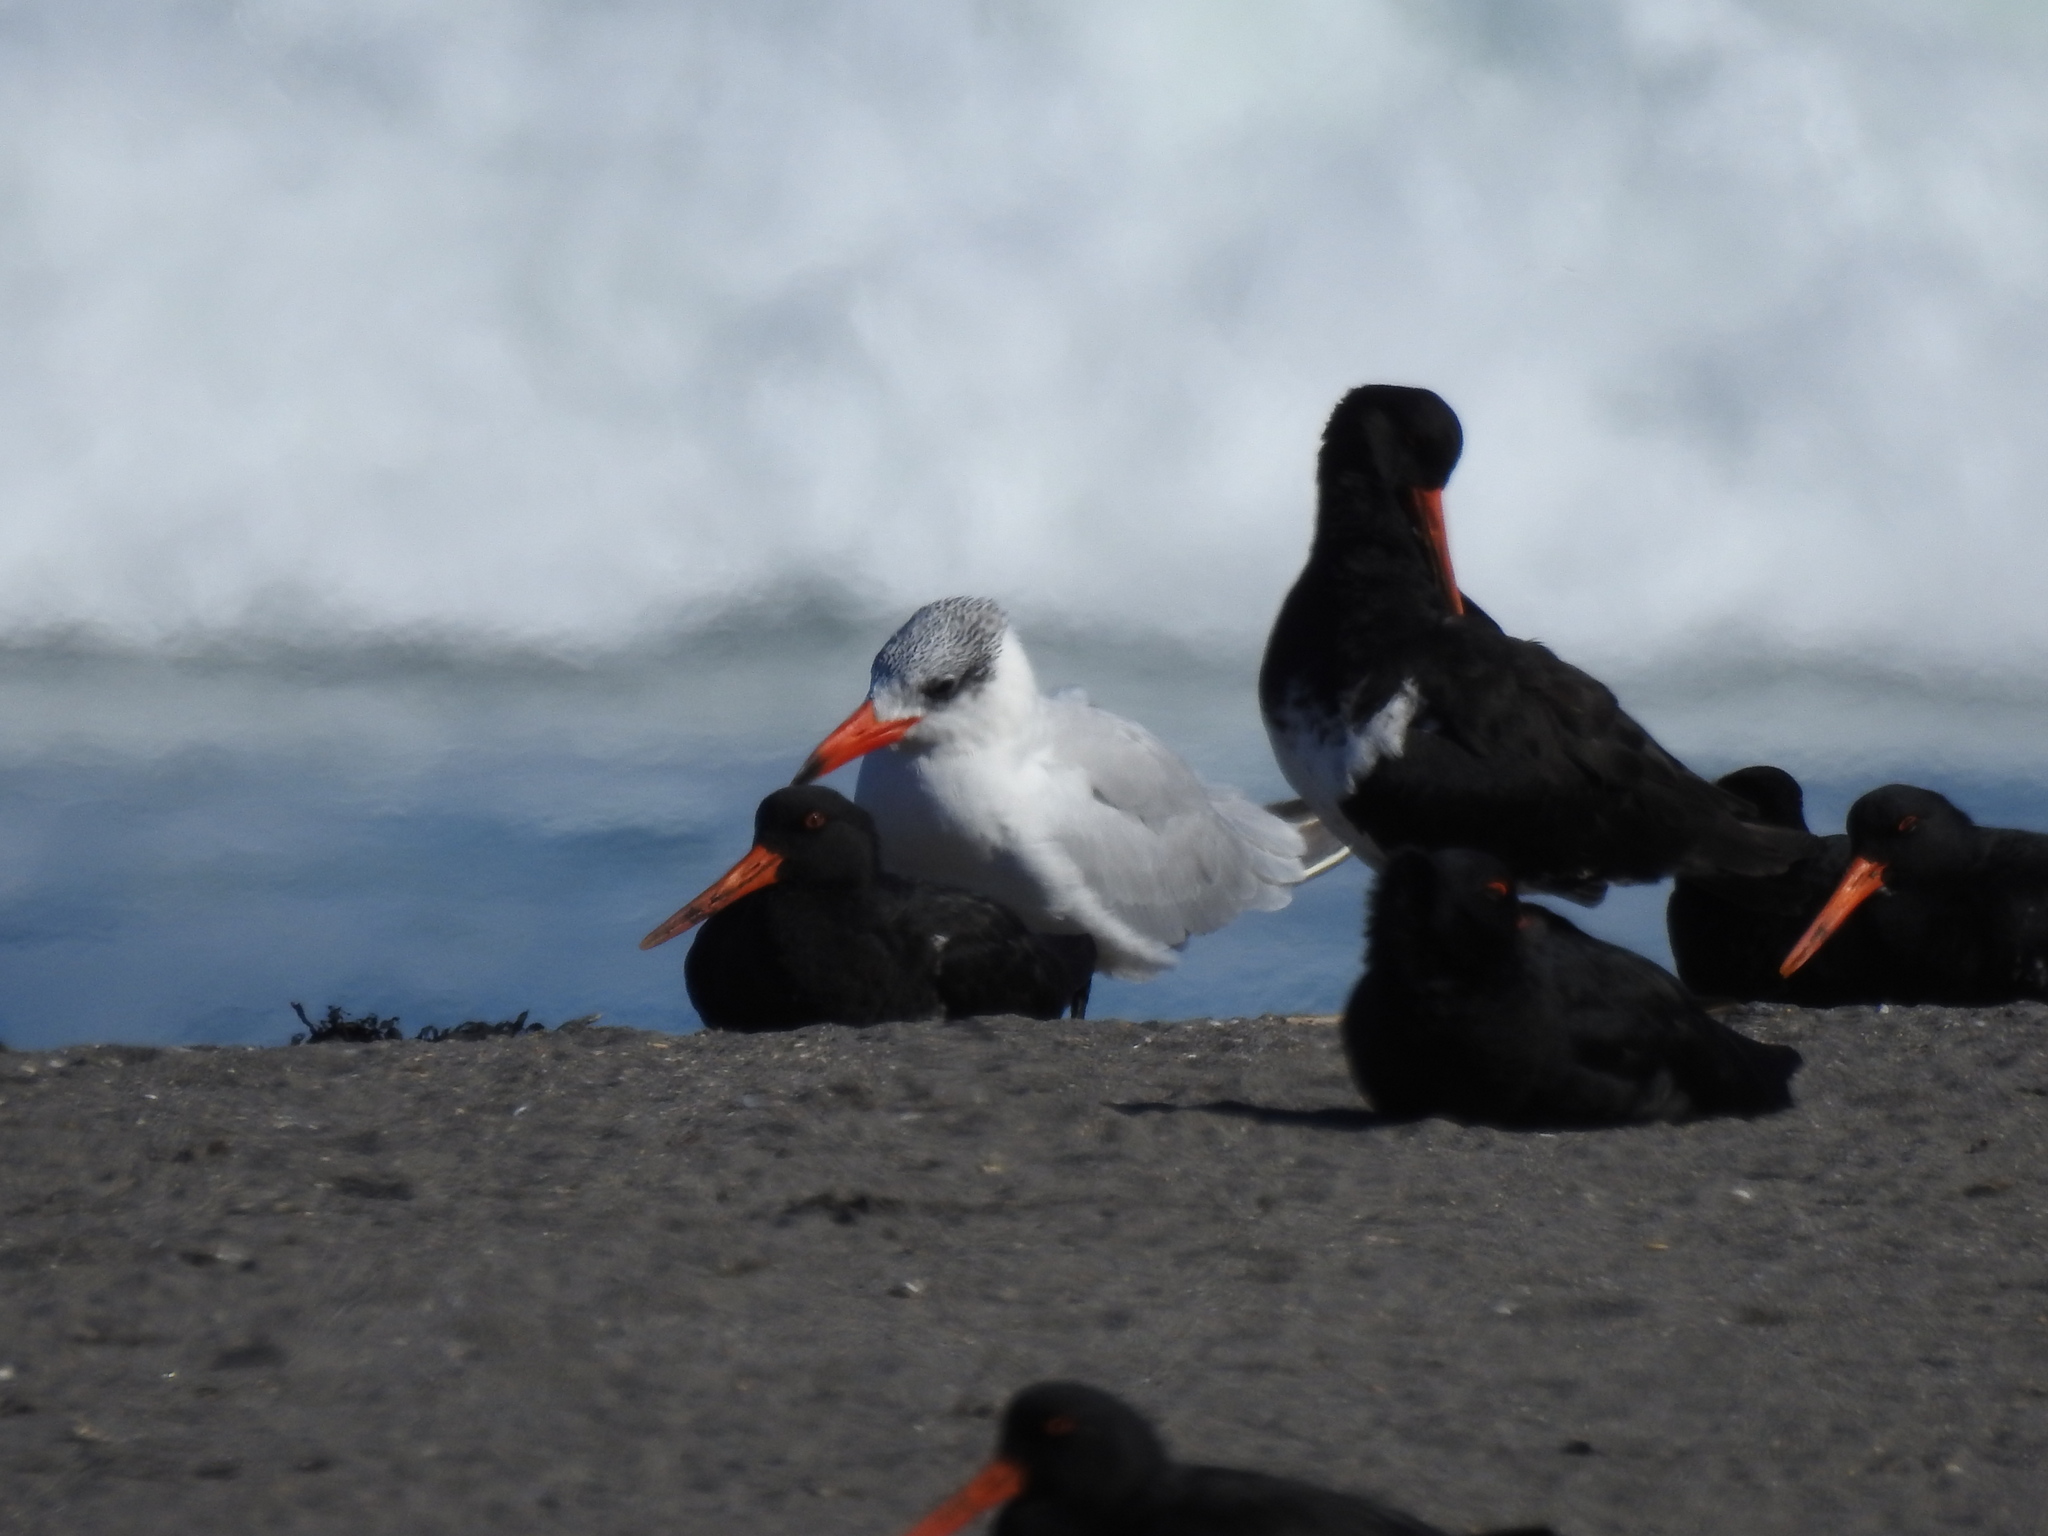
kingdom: Animalia
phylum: Chordata
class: Aves
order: Charadriiformes
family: Laridae
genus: Hydroprogne
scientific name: Hydroprogne caspia
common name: Caspian tern
